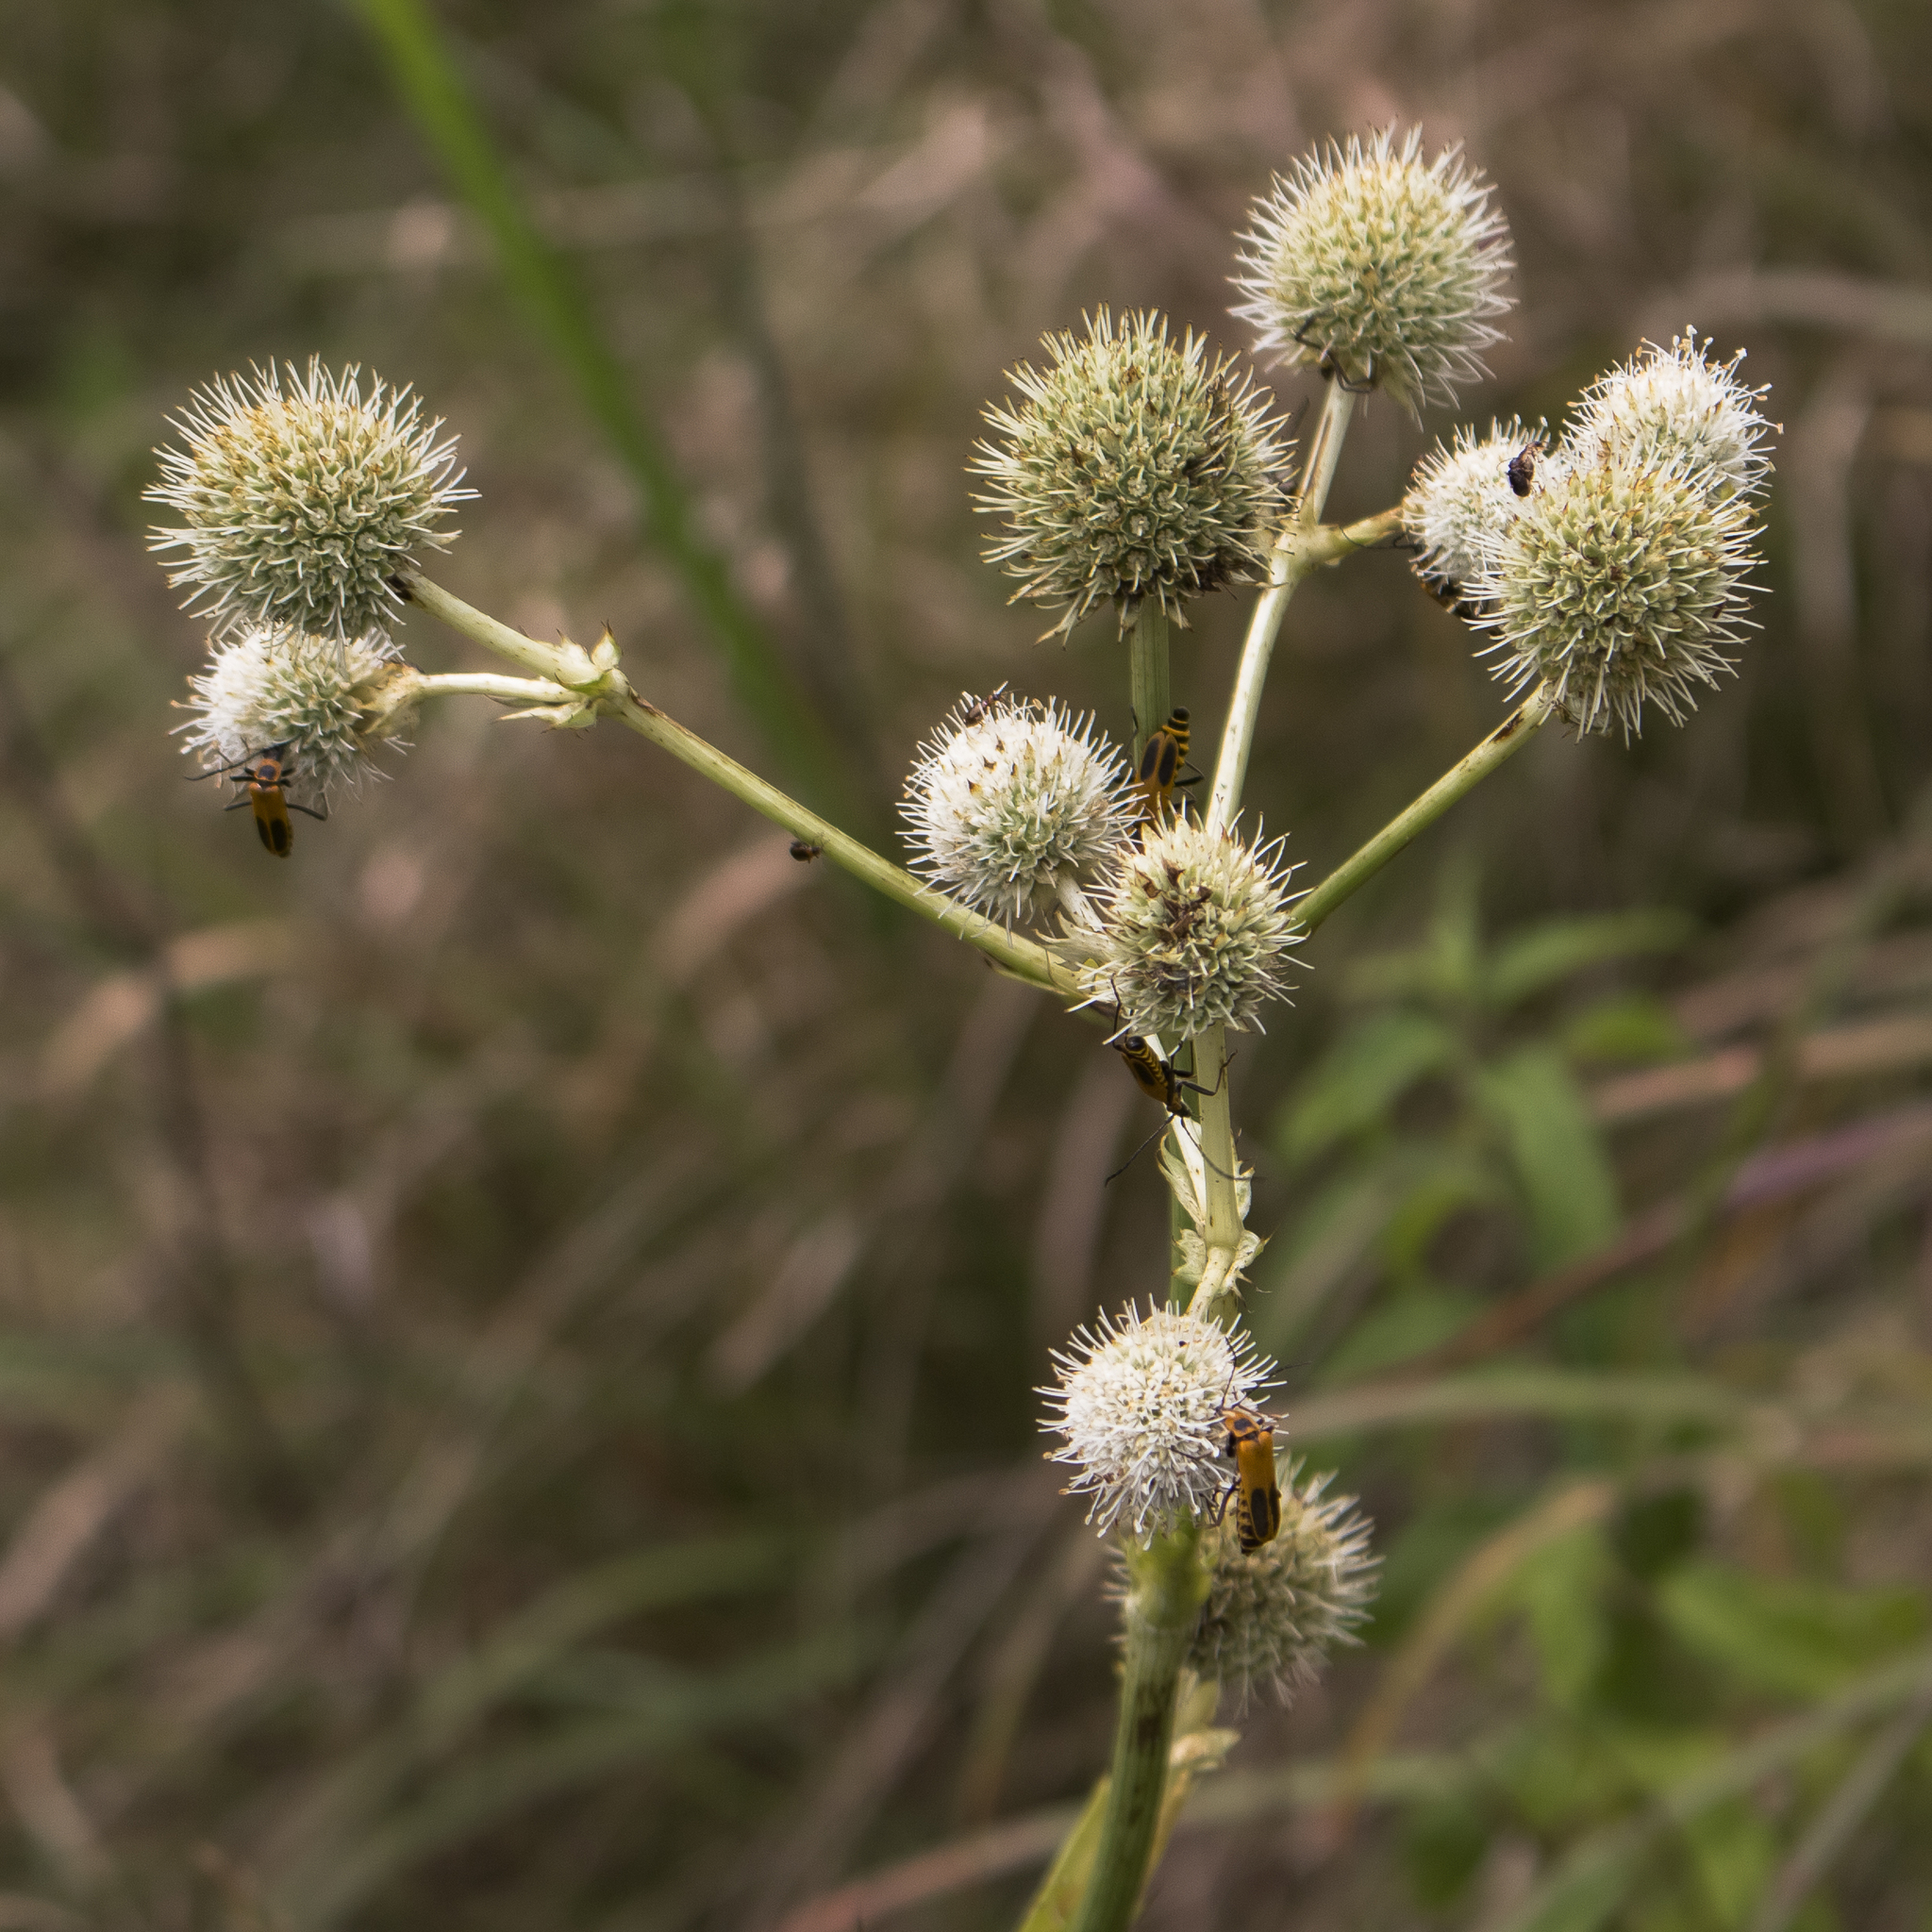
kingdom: Plantae
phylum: Tracheophyta
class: Magnoliopsida
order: Apiales
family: Apiaceae
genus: Eryngium
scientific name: Eryngium yuccifolium
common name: Button eryngo
